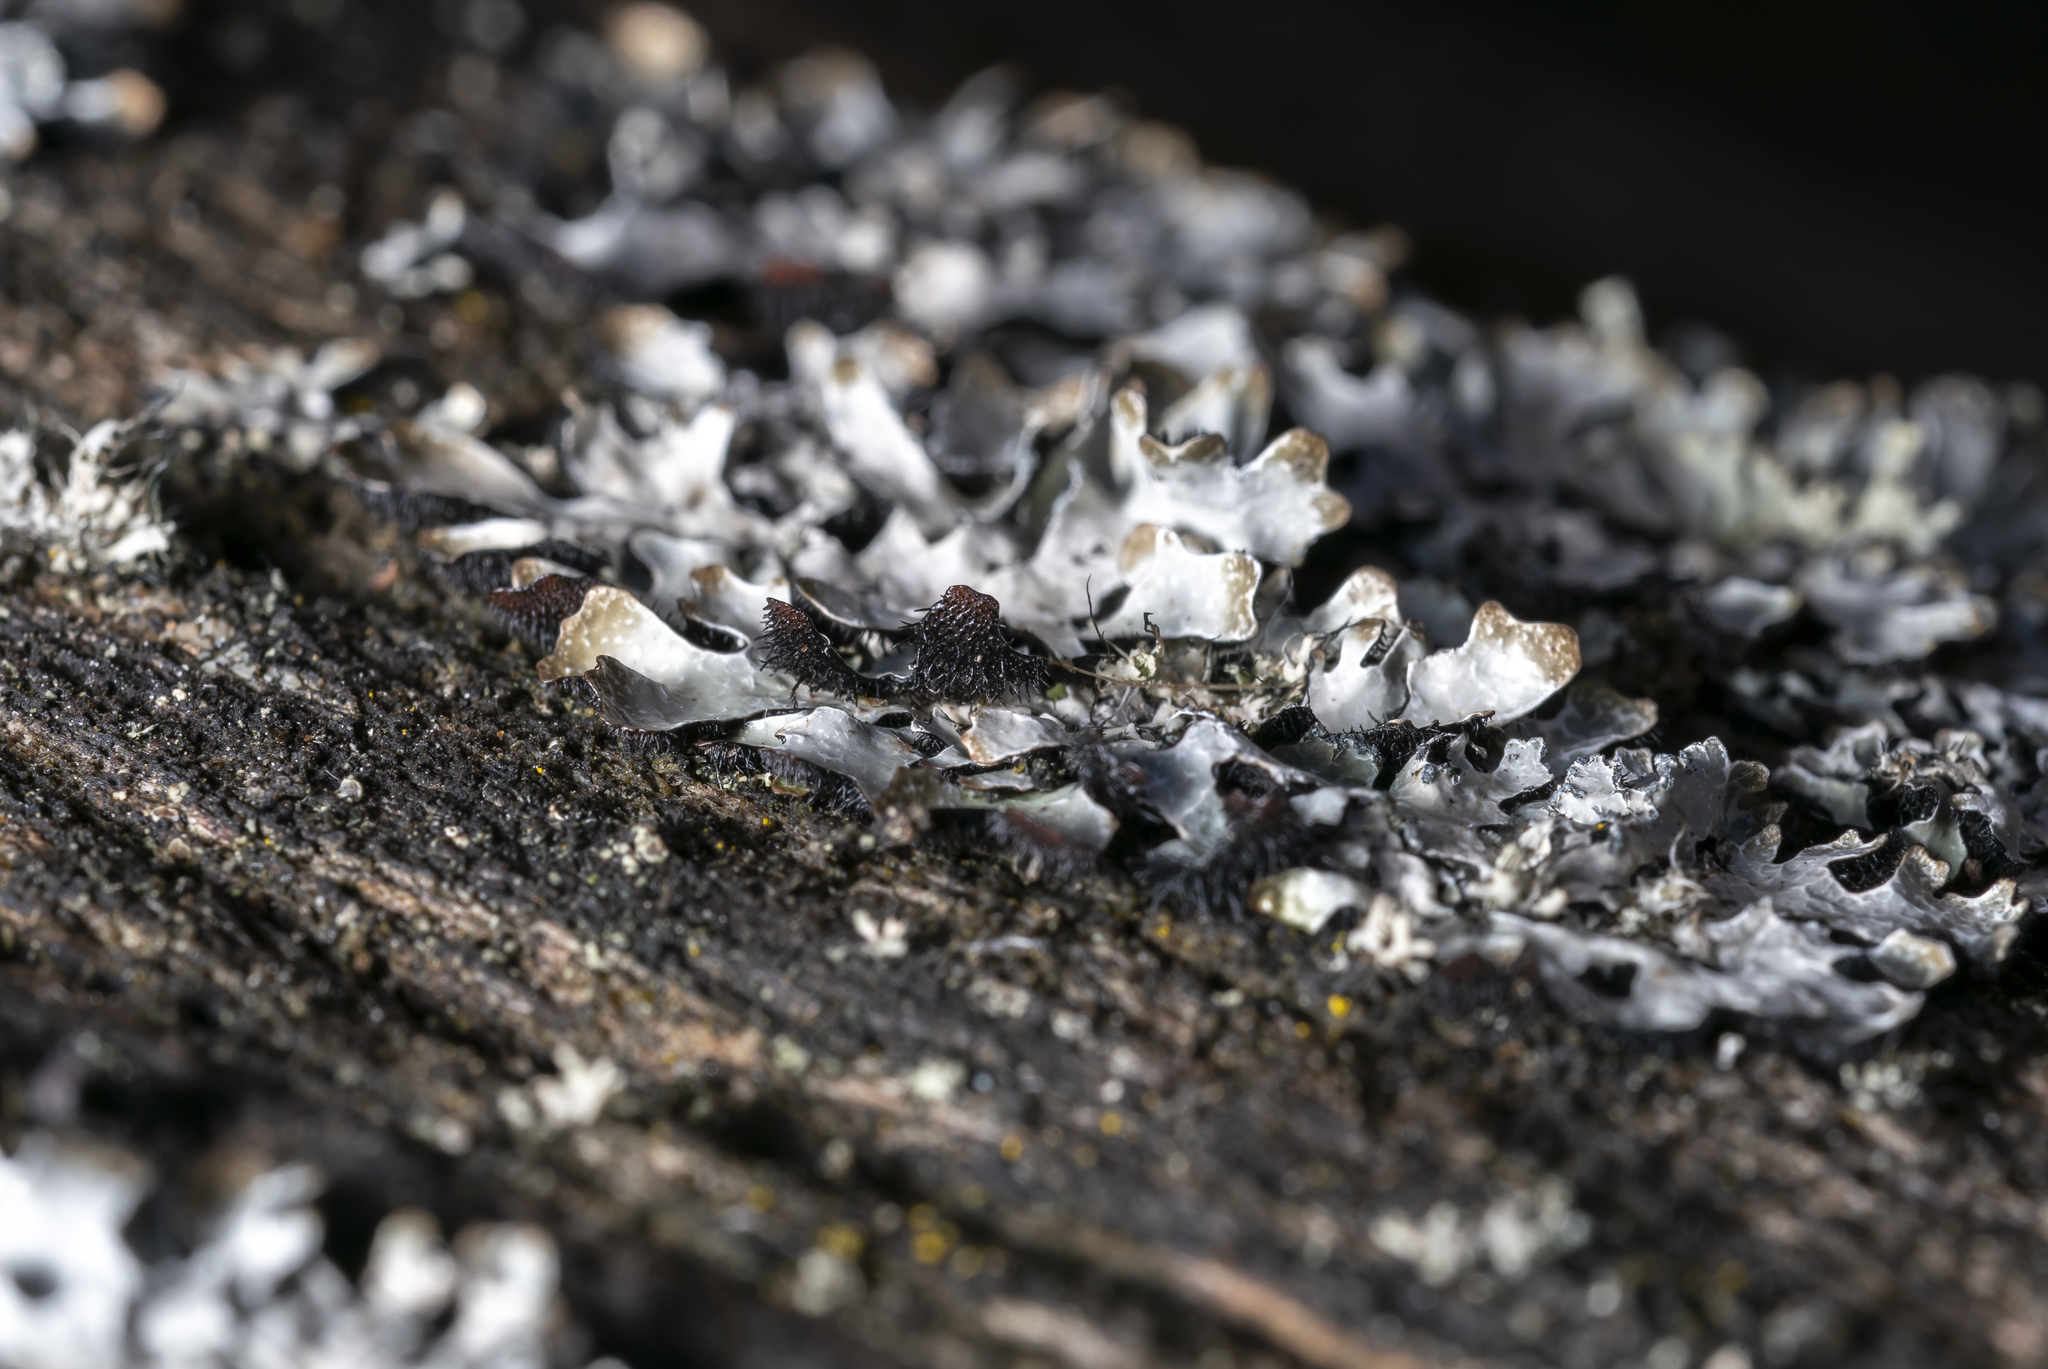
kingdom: Fungi
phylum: Ascomycota
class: Lecanoromycetes
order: Lecanorales
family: Parmeliaceae
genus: Parmelia
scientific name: Parmelia sulcata
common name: Netted shield lichen
